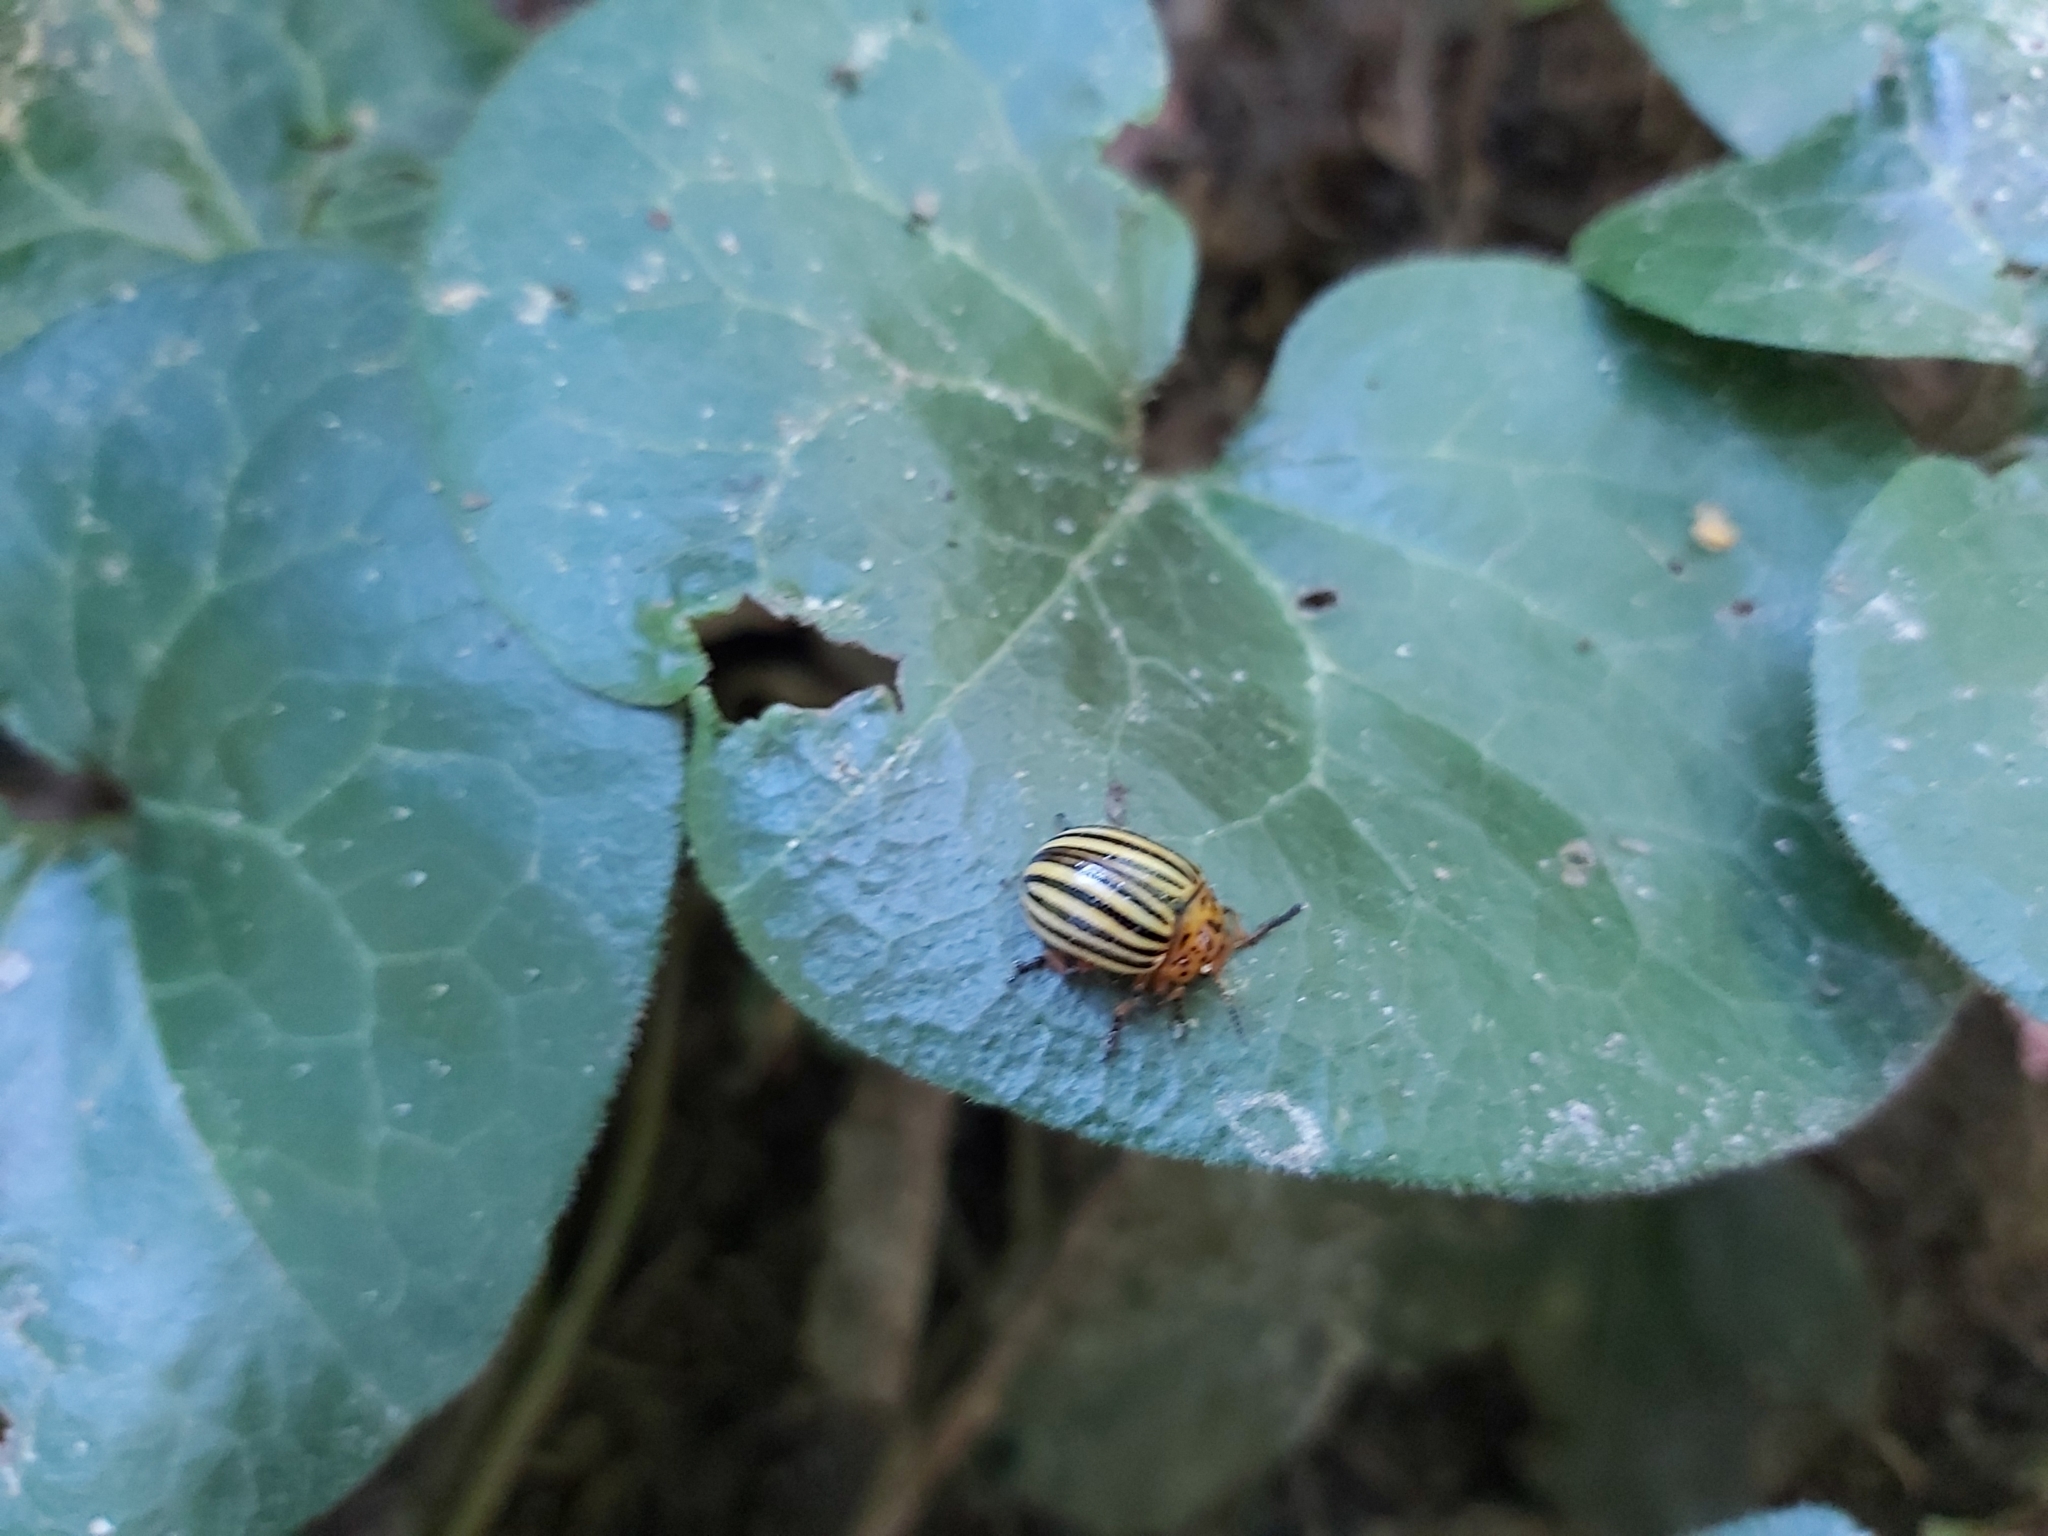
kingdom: Animalia
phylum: Arthropoda
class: Insecta
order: Coleoptera
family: Chrysomelidae
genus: Leptinotarsa
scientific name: Leptinotarsa decemlineata
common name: Colorado potato beetle
